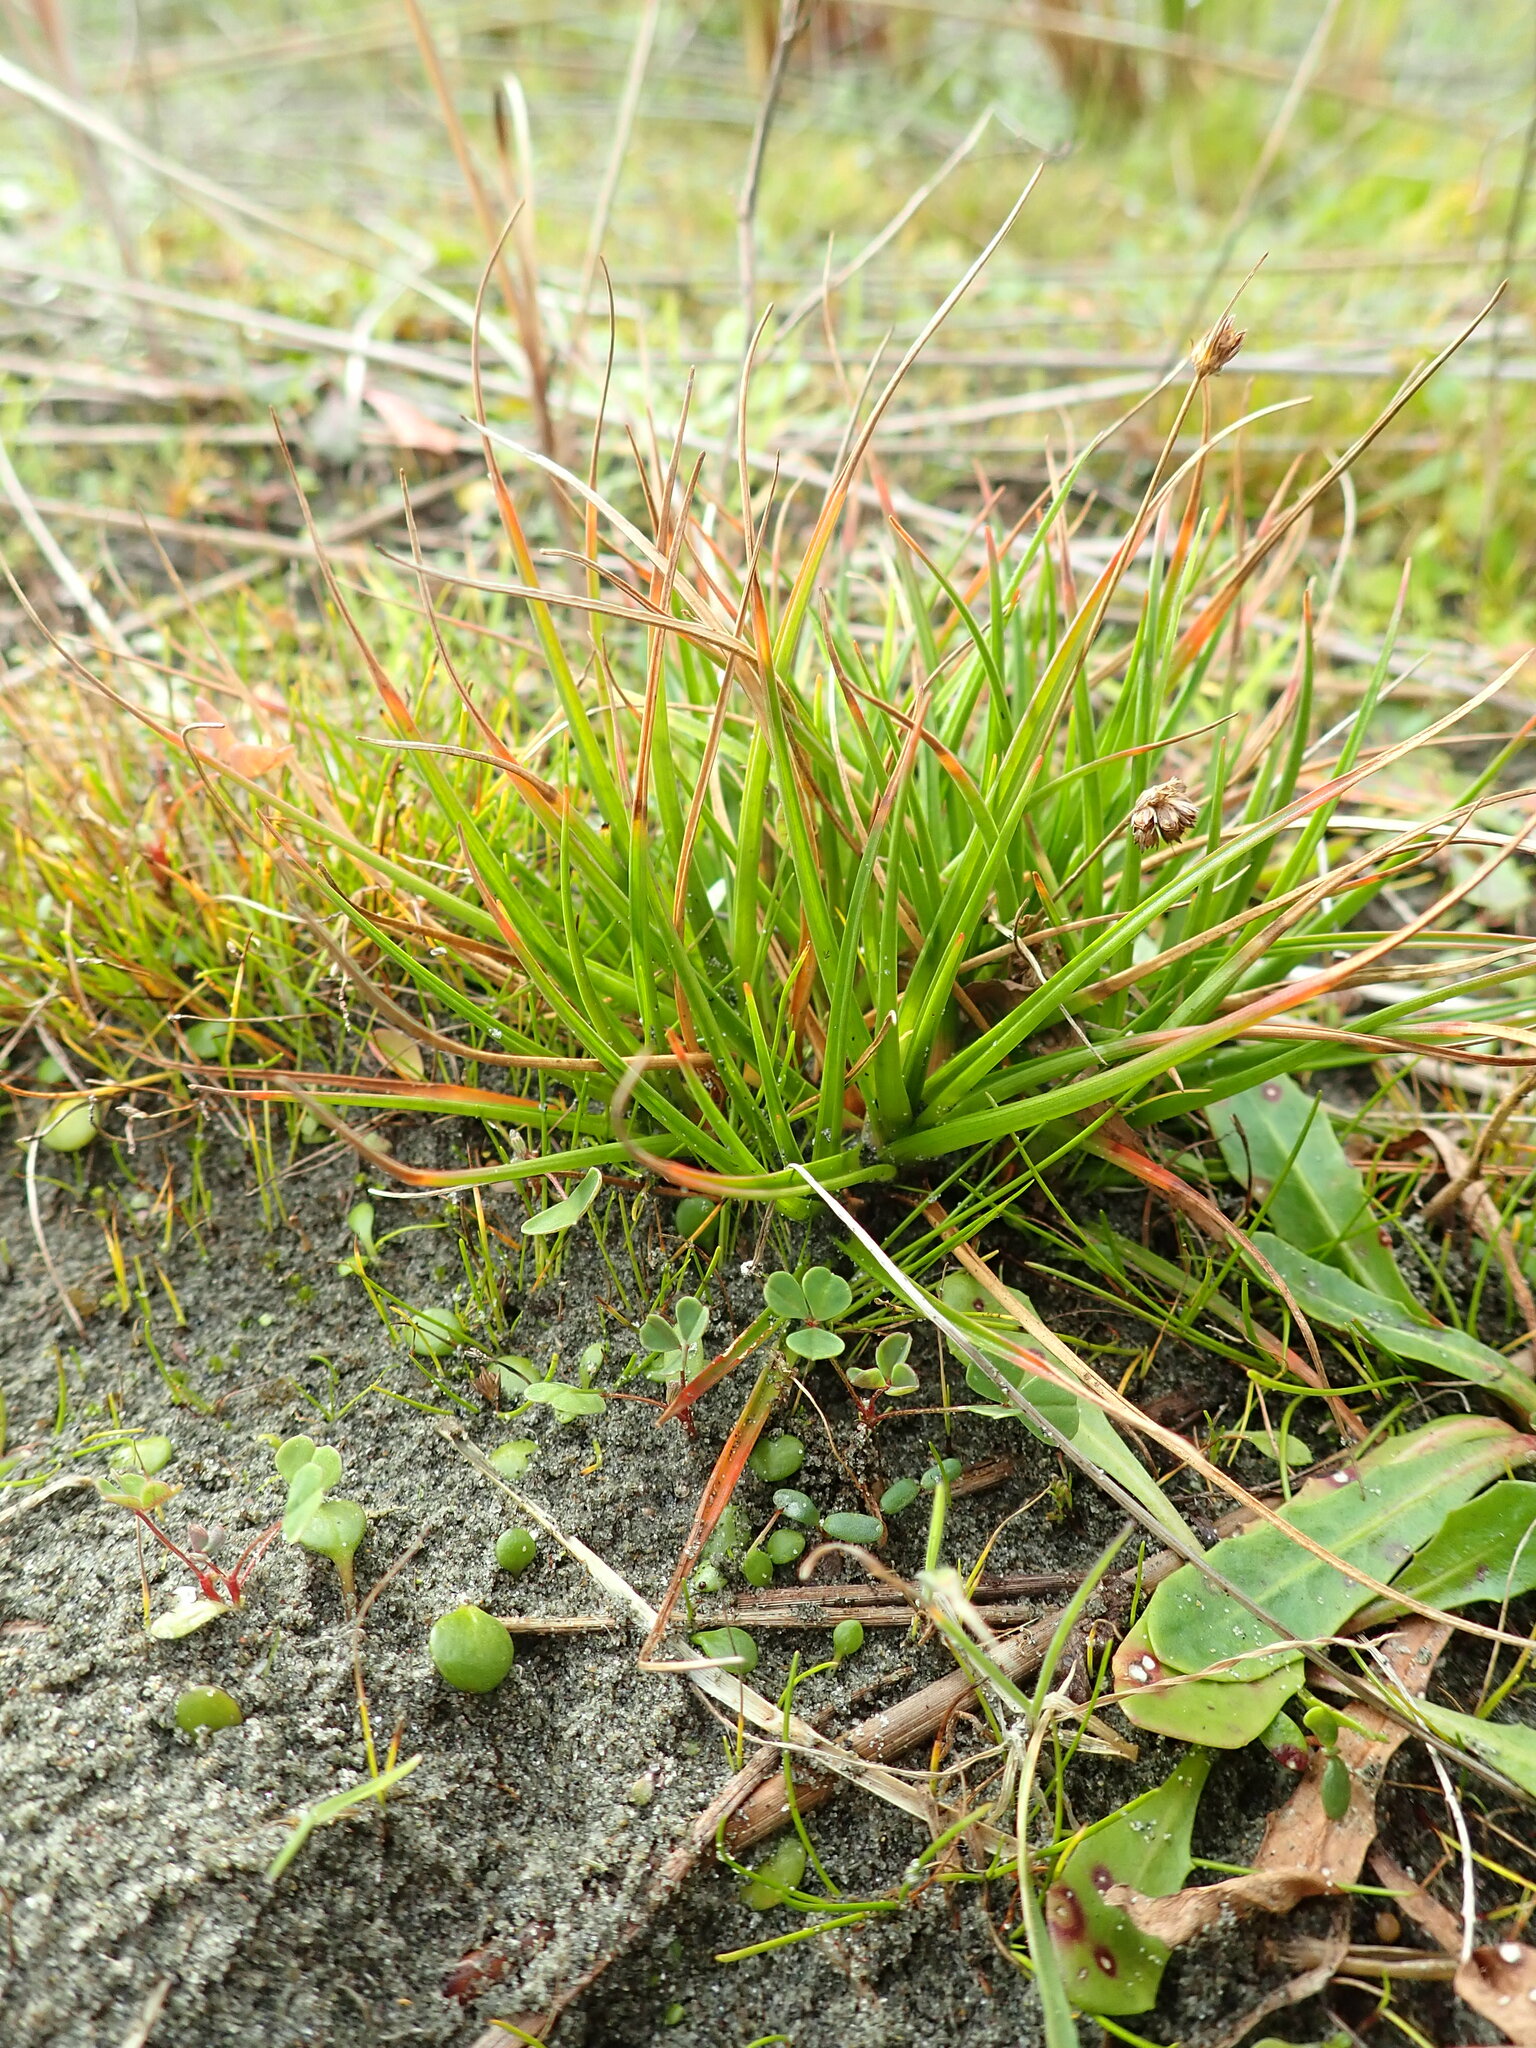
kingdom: Plantae
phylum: Tracheophyta
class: Liliopsida
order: Poales
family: Juncaceae
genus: Juncus
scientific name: Juncus caespiticius
